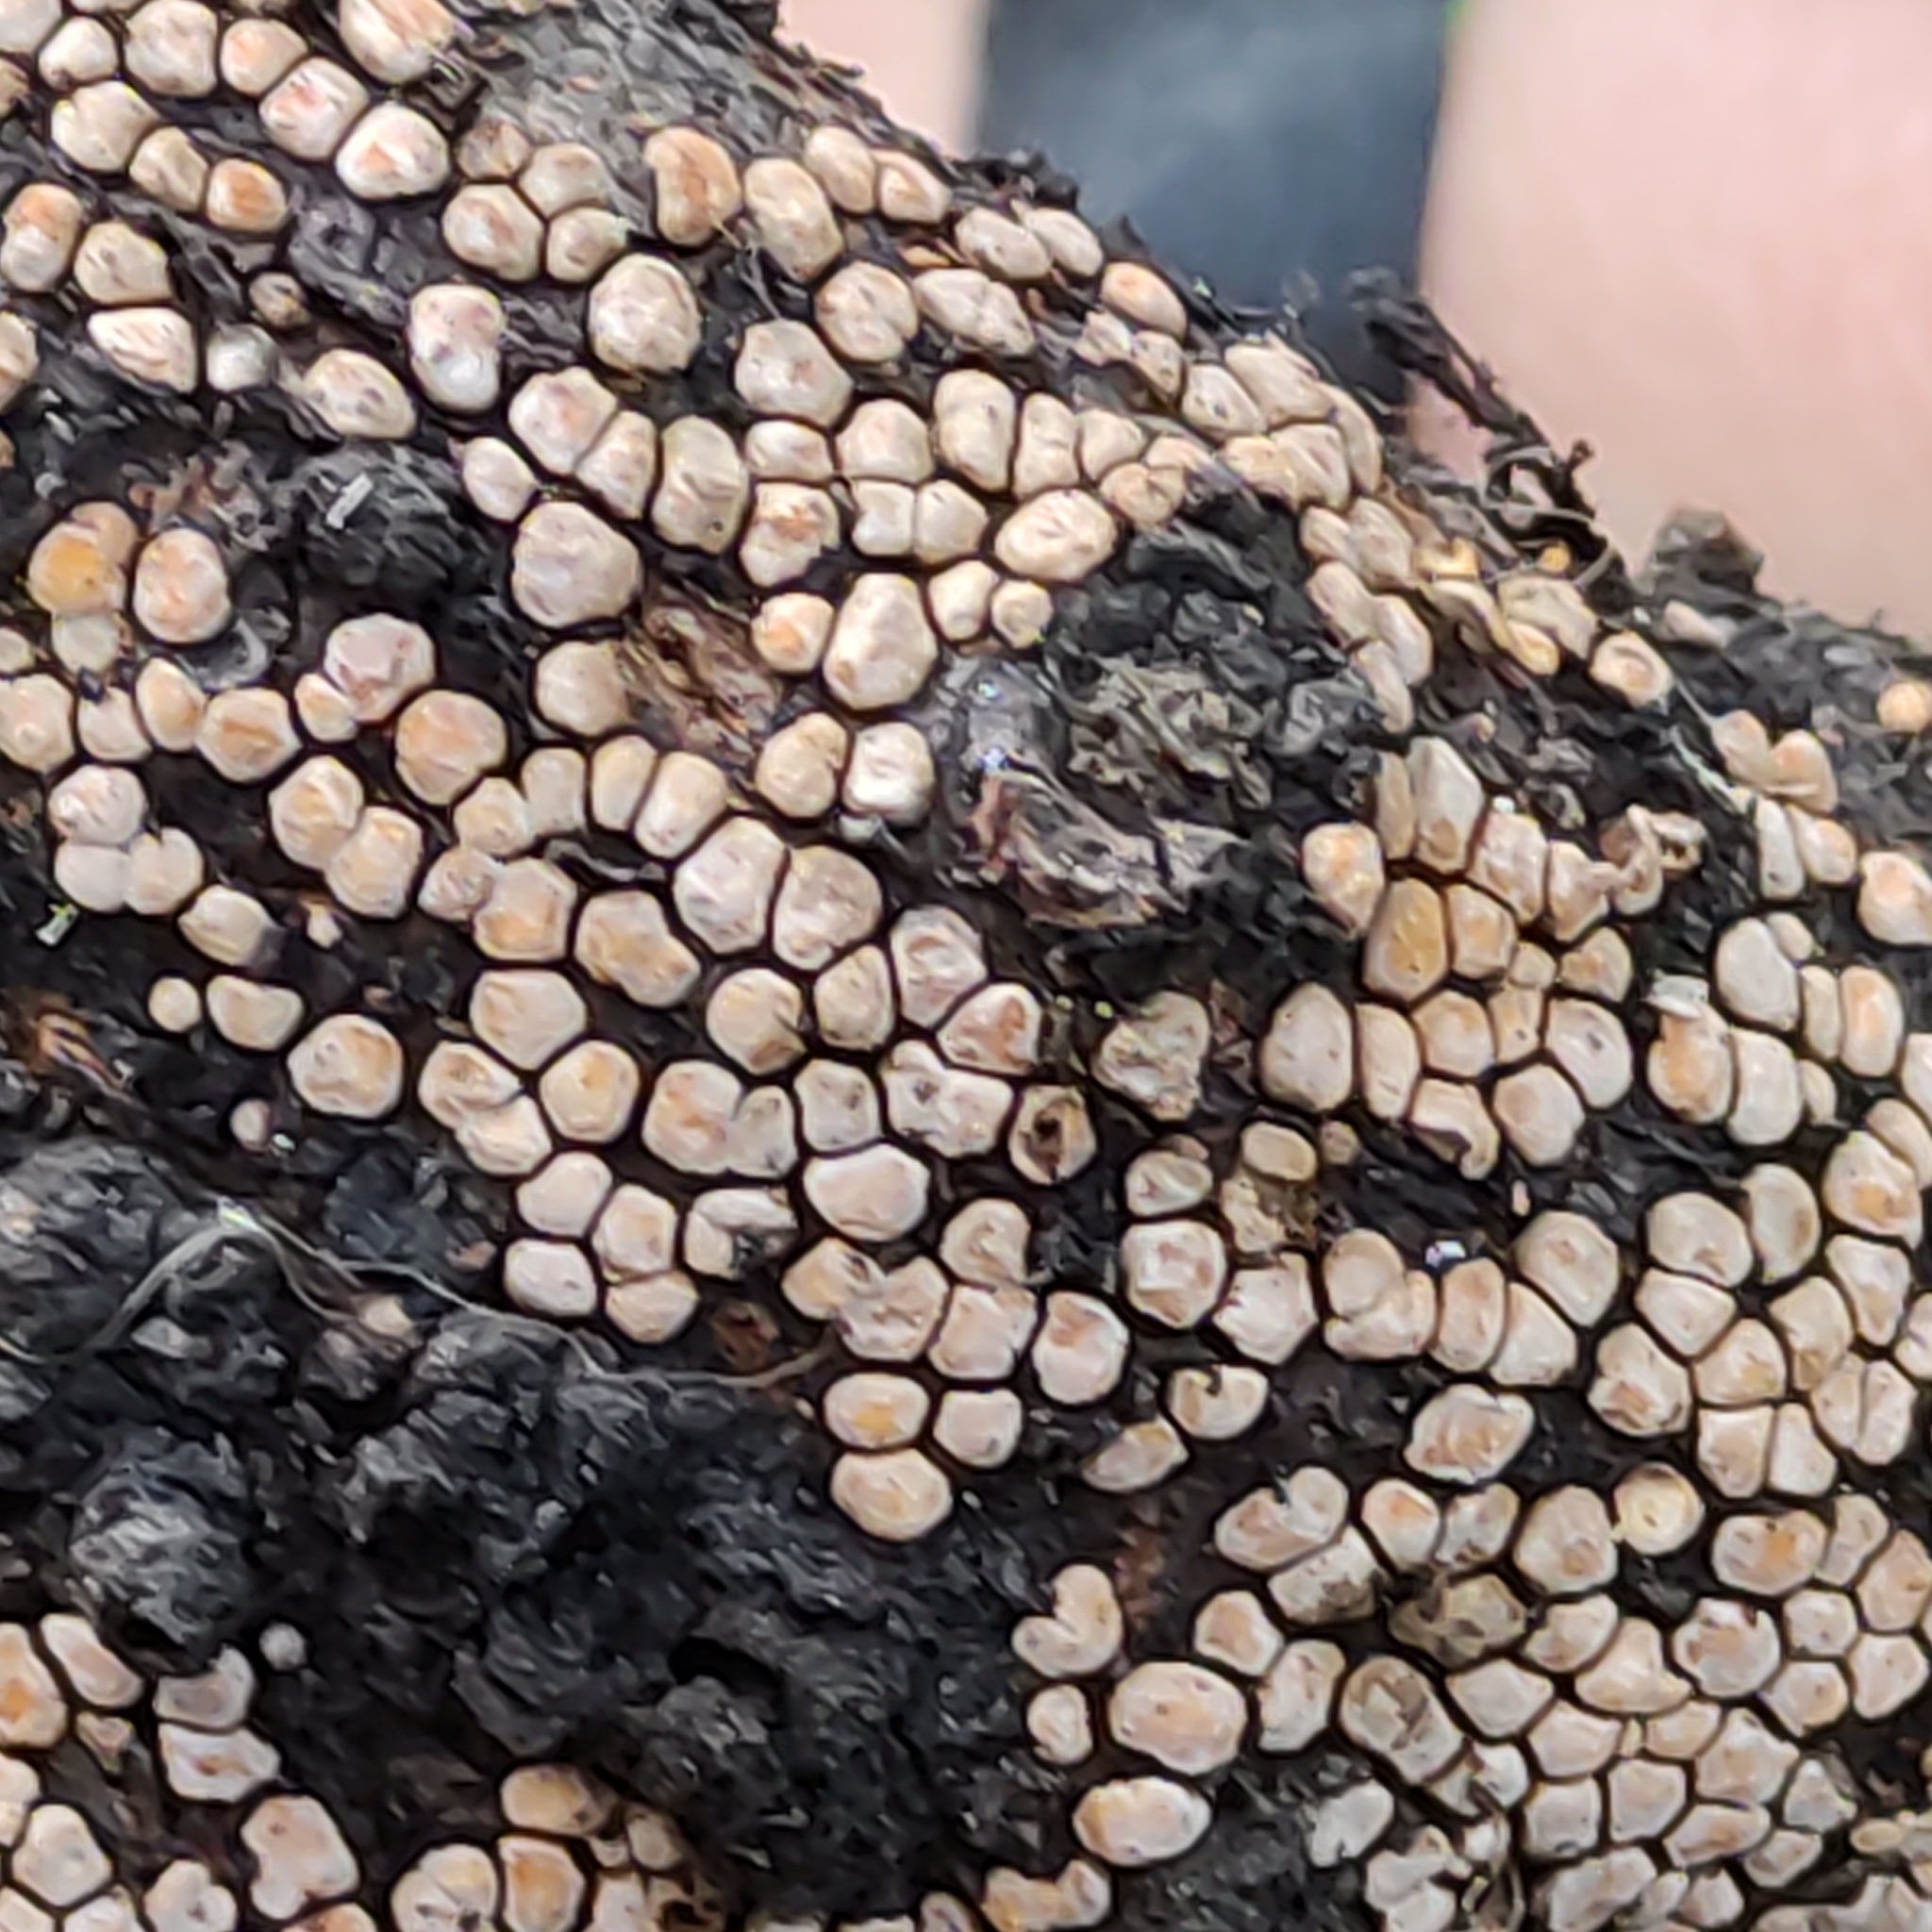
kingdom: Fungi
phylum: Basidiomycota
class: Agaricomycetes
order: Russulales
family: Stereaceae
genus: Aleurodiscus
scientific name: Aleurodiscus berggrenii
